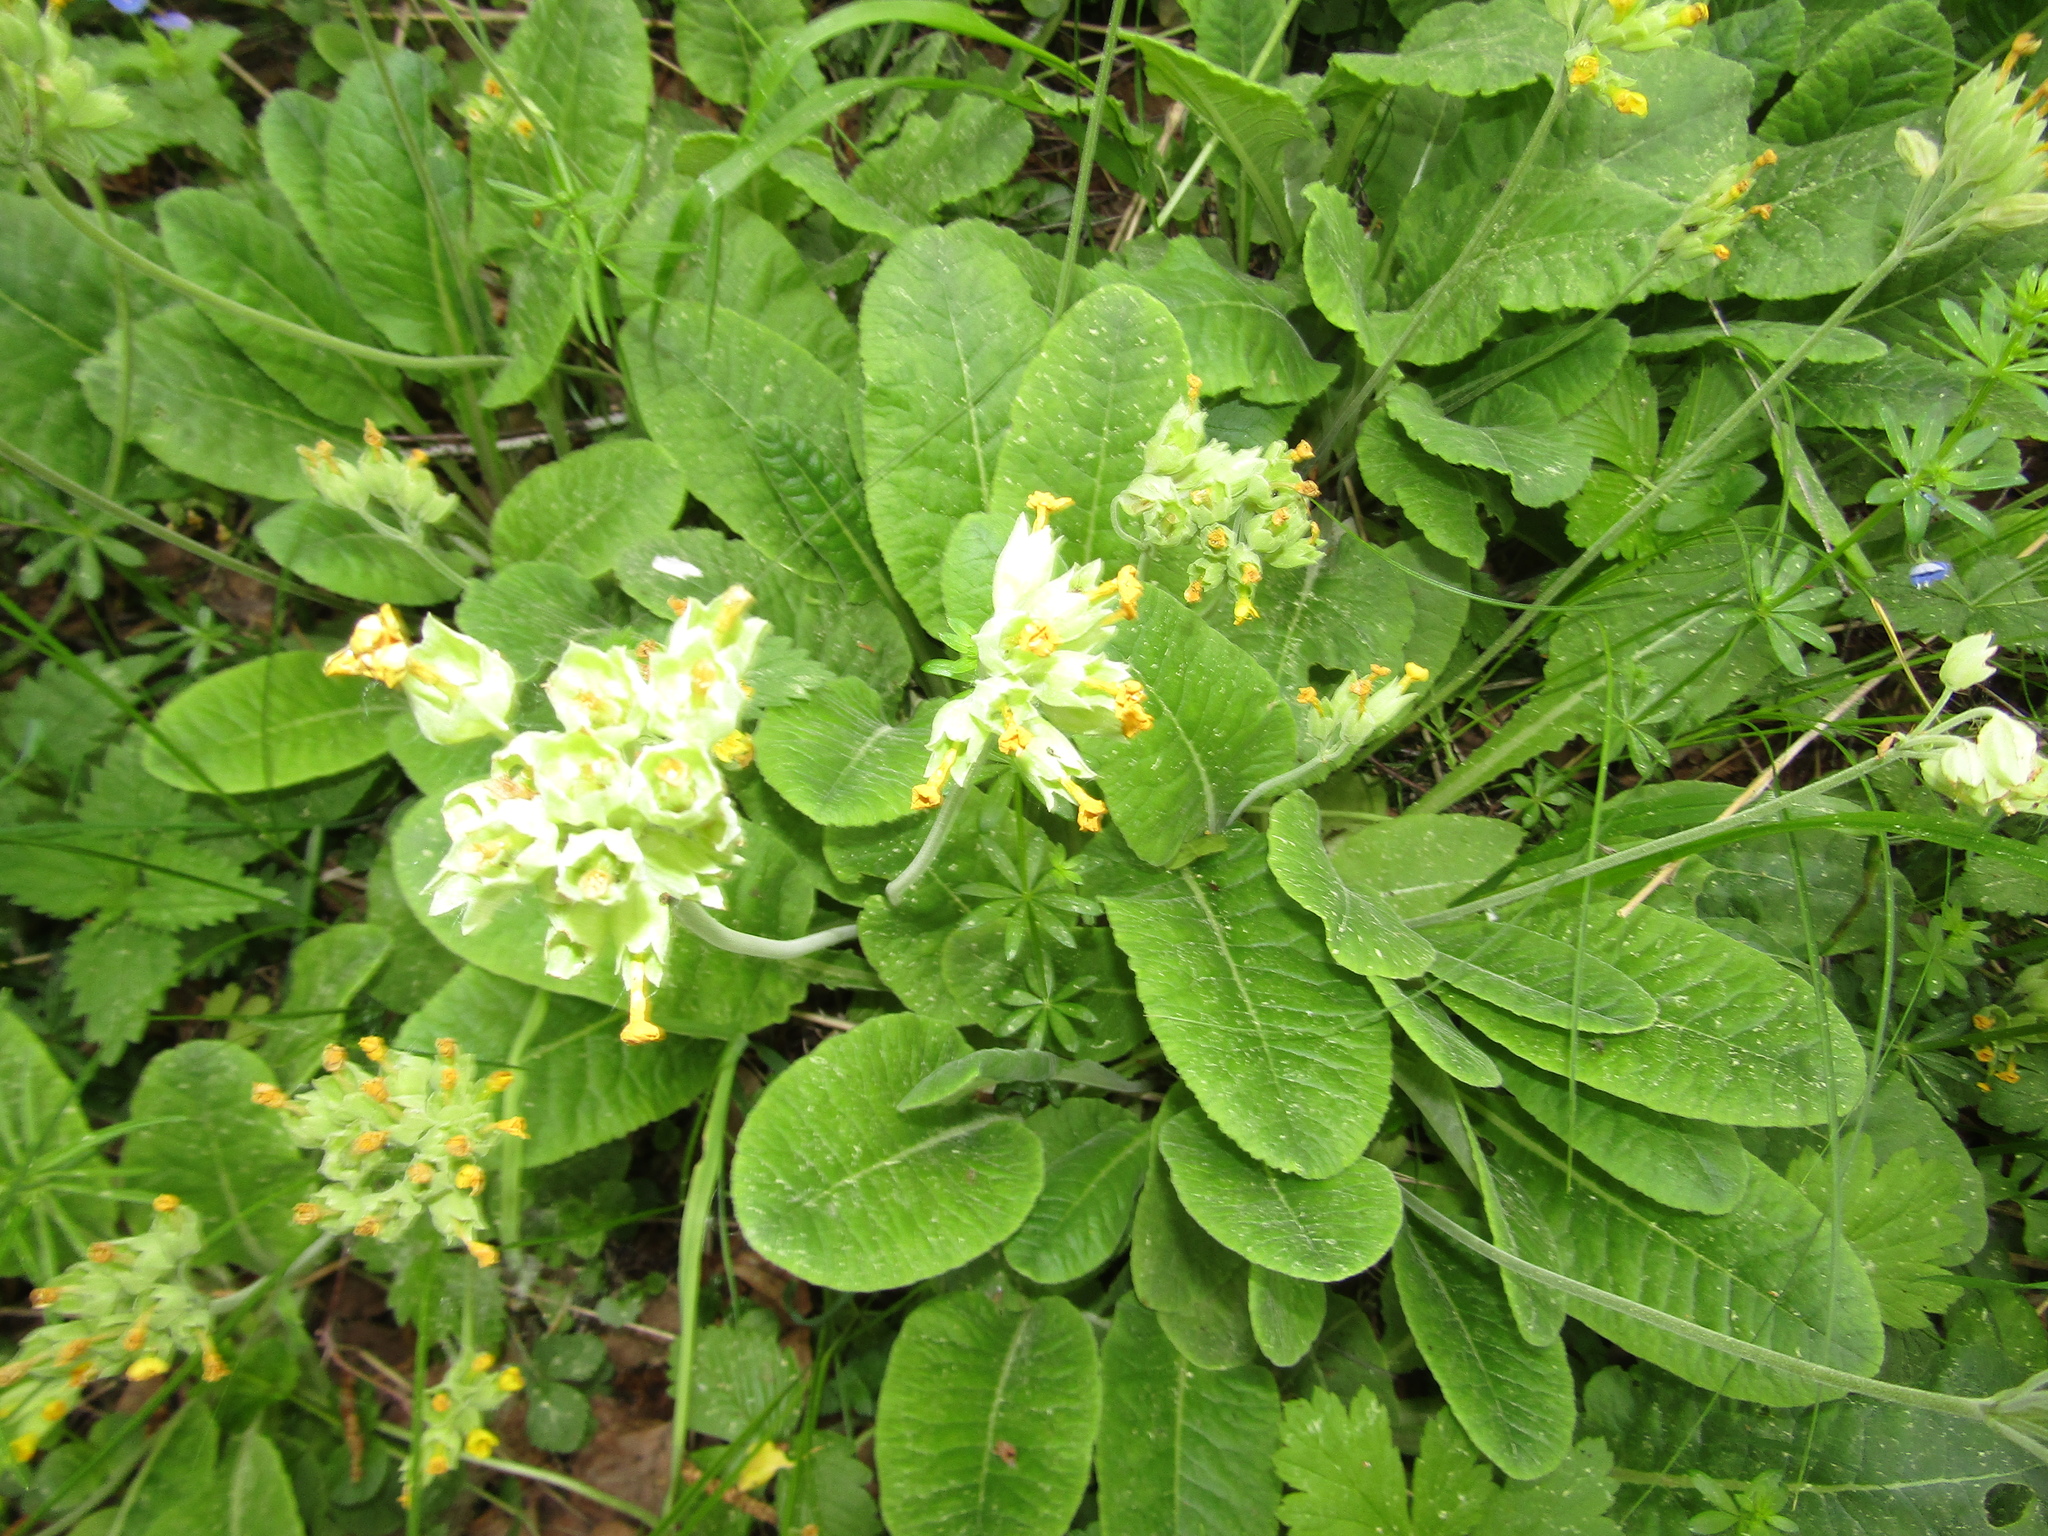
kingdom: Plantae
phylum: Tracheophyta
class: Magnoliopsida
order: Ericales
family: Primulaceae
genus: Primula
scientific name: Primula veris
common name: Cowslip
